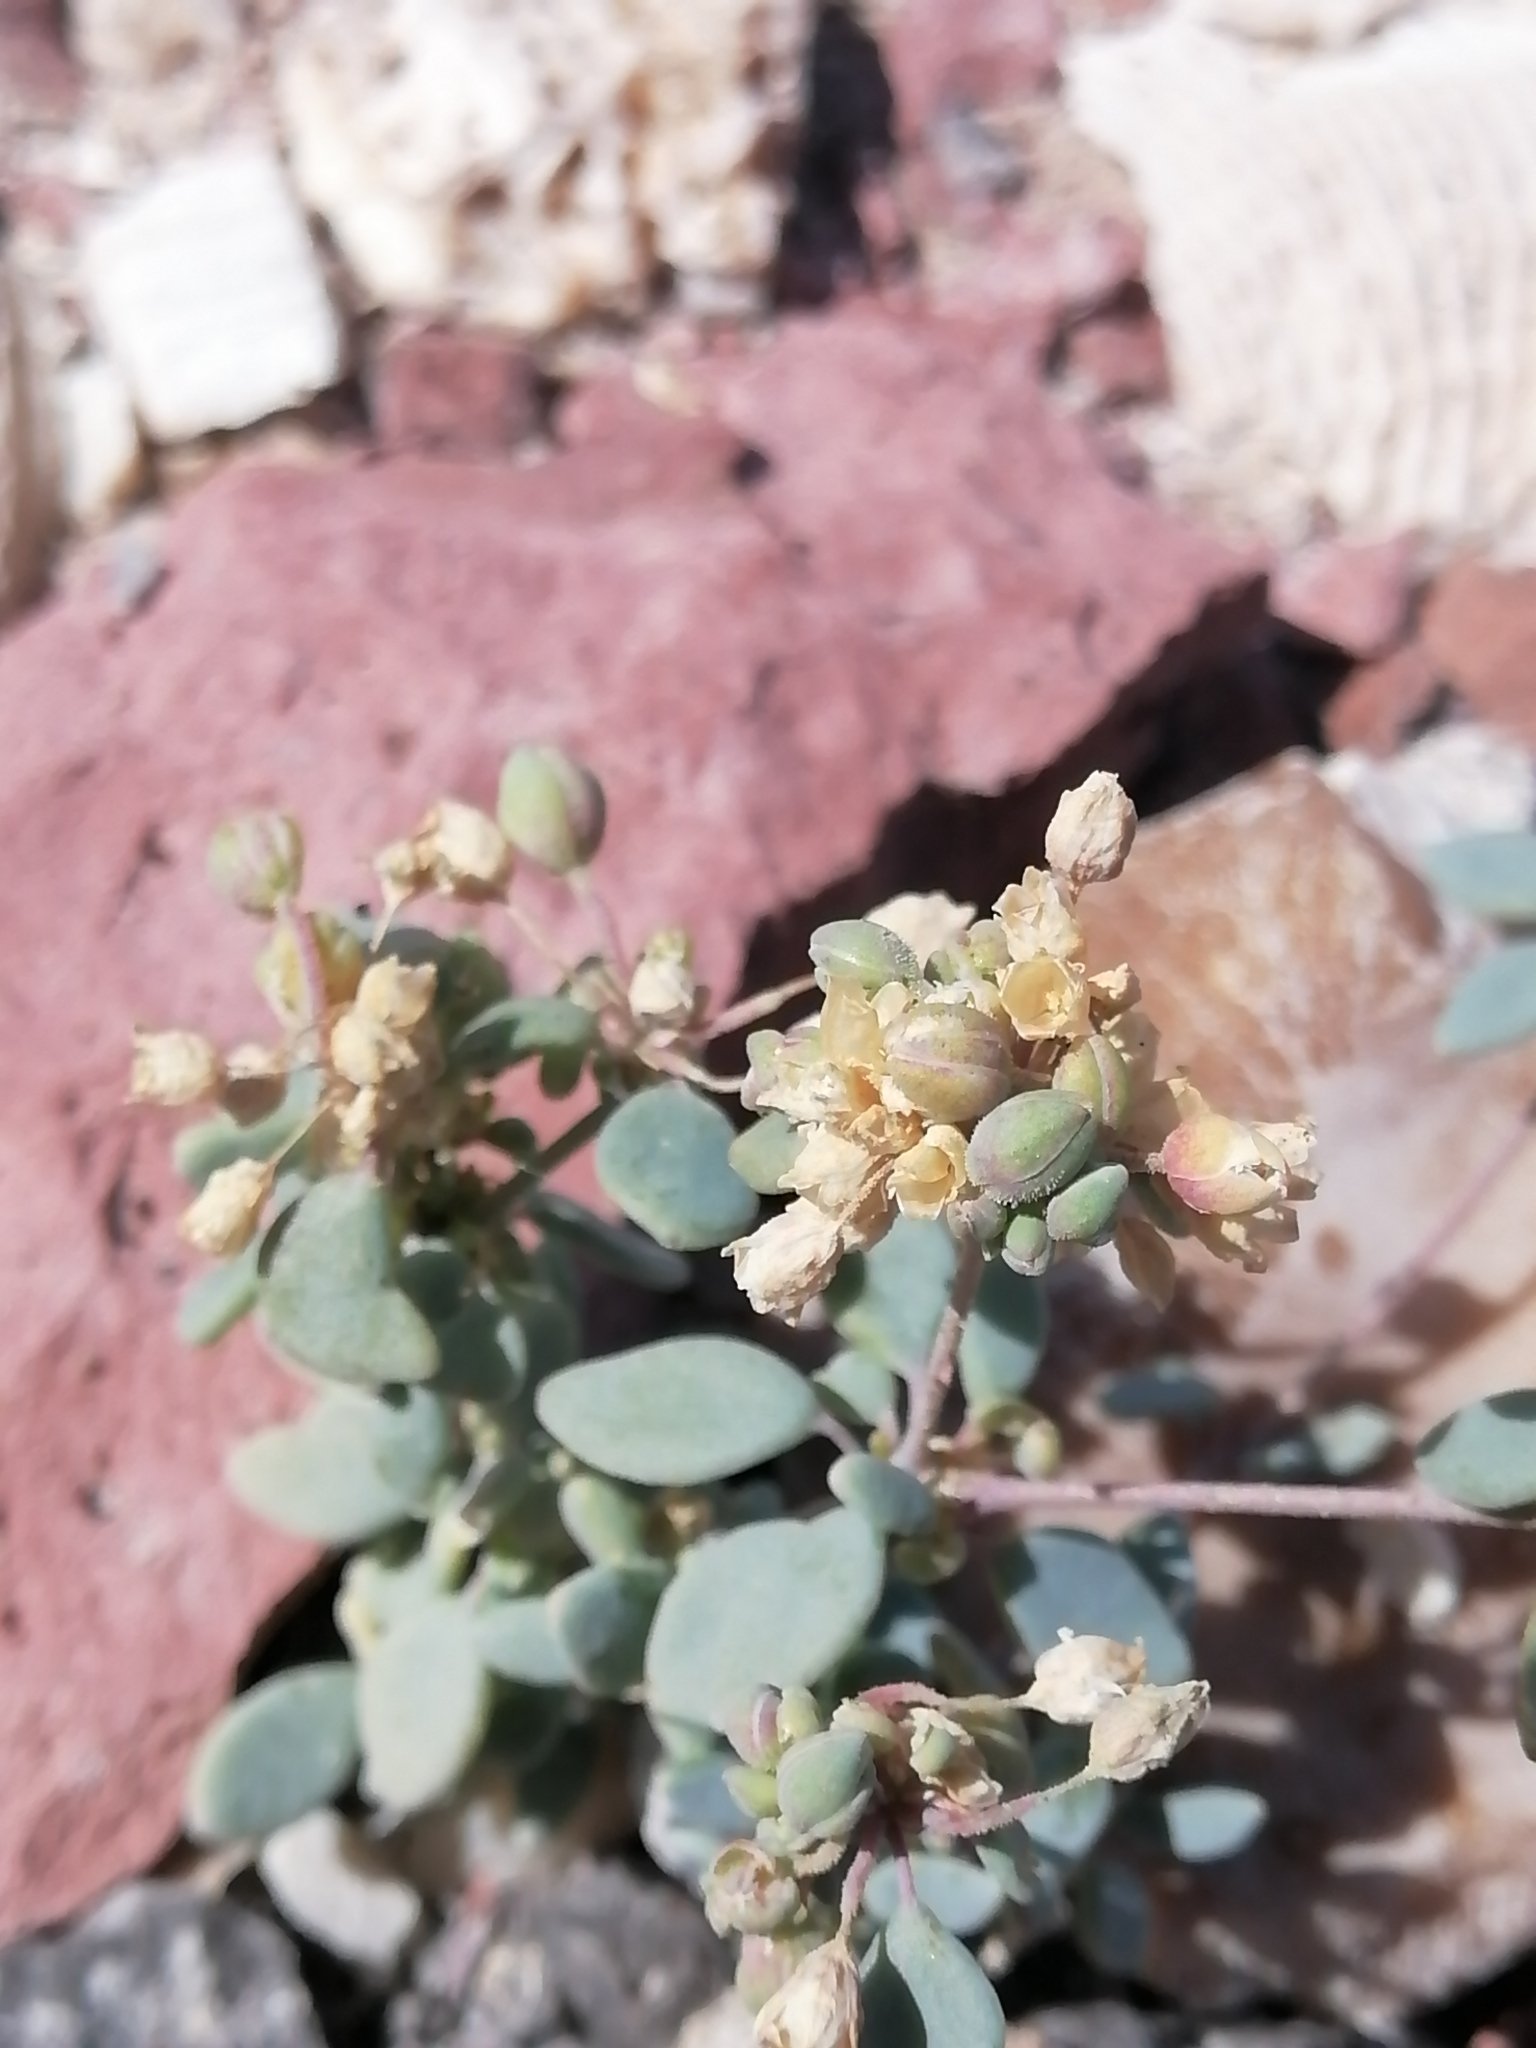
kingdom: Plantae
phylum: Tracheophyta
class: Magnoliopsida
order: Caryophyllales
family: Caryophyllaceae
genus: Drymaria
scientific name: Drymaria holosteoides
